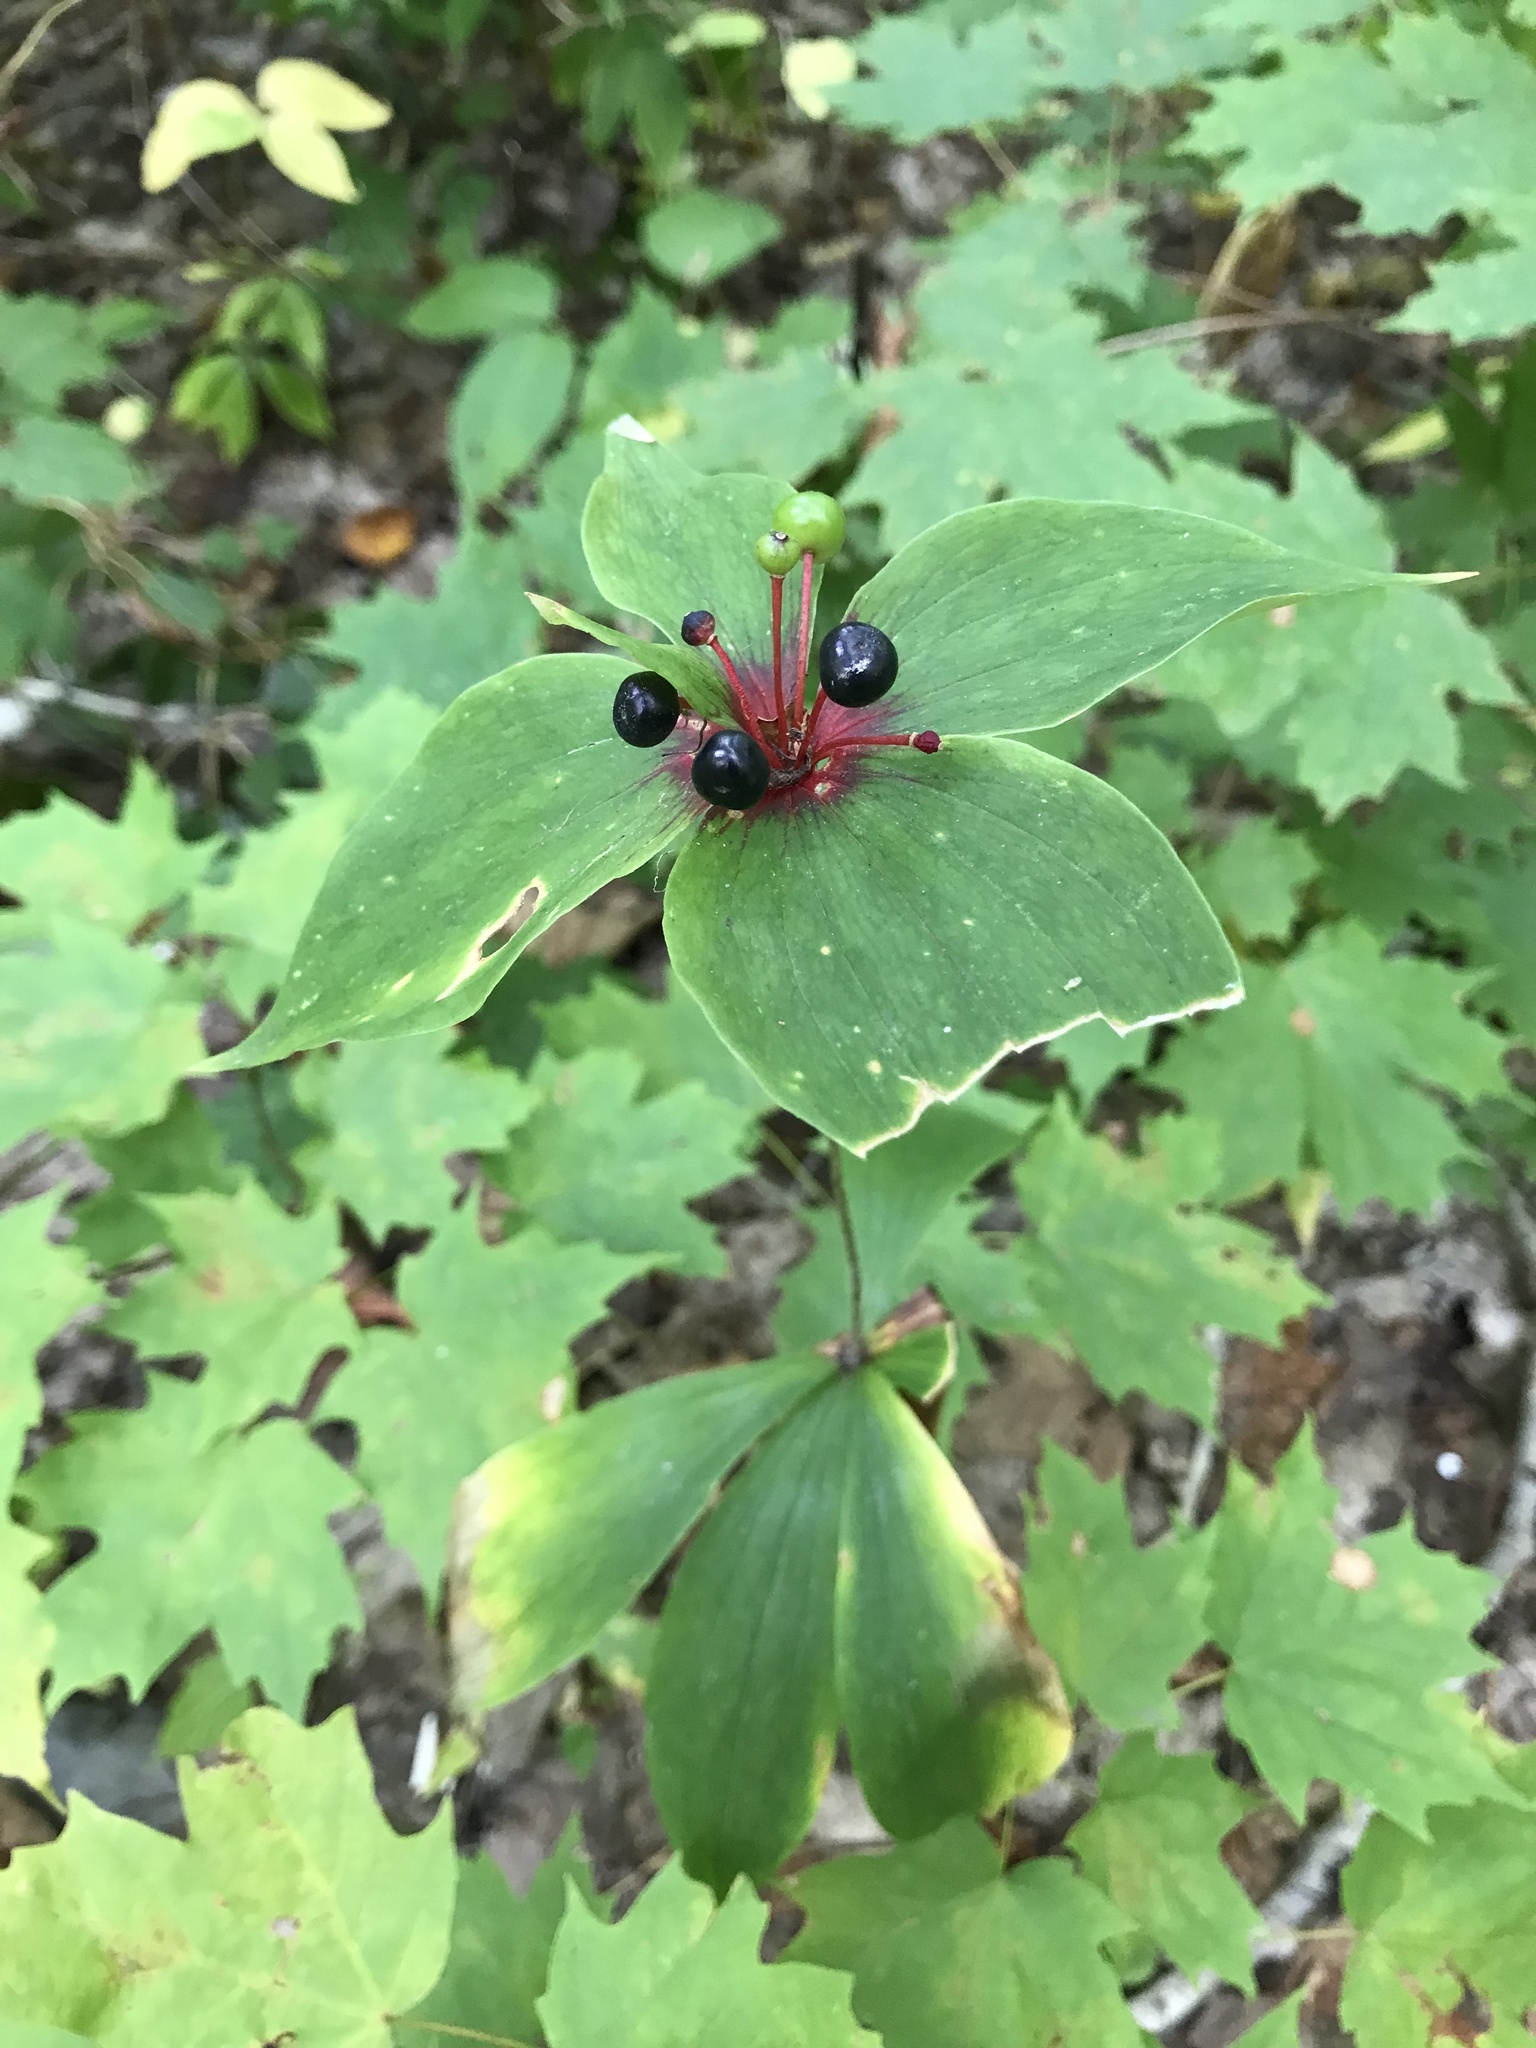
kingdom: Plantae
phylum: Tracheophyta
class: Liliopsida
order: Liliales
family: Liliaceae
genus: Medeola
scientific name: Medeola virginiana
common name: Indian cucumber-root
